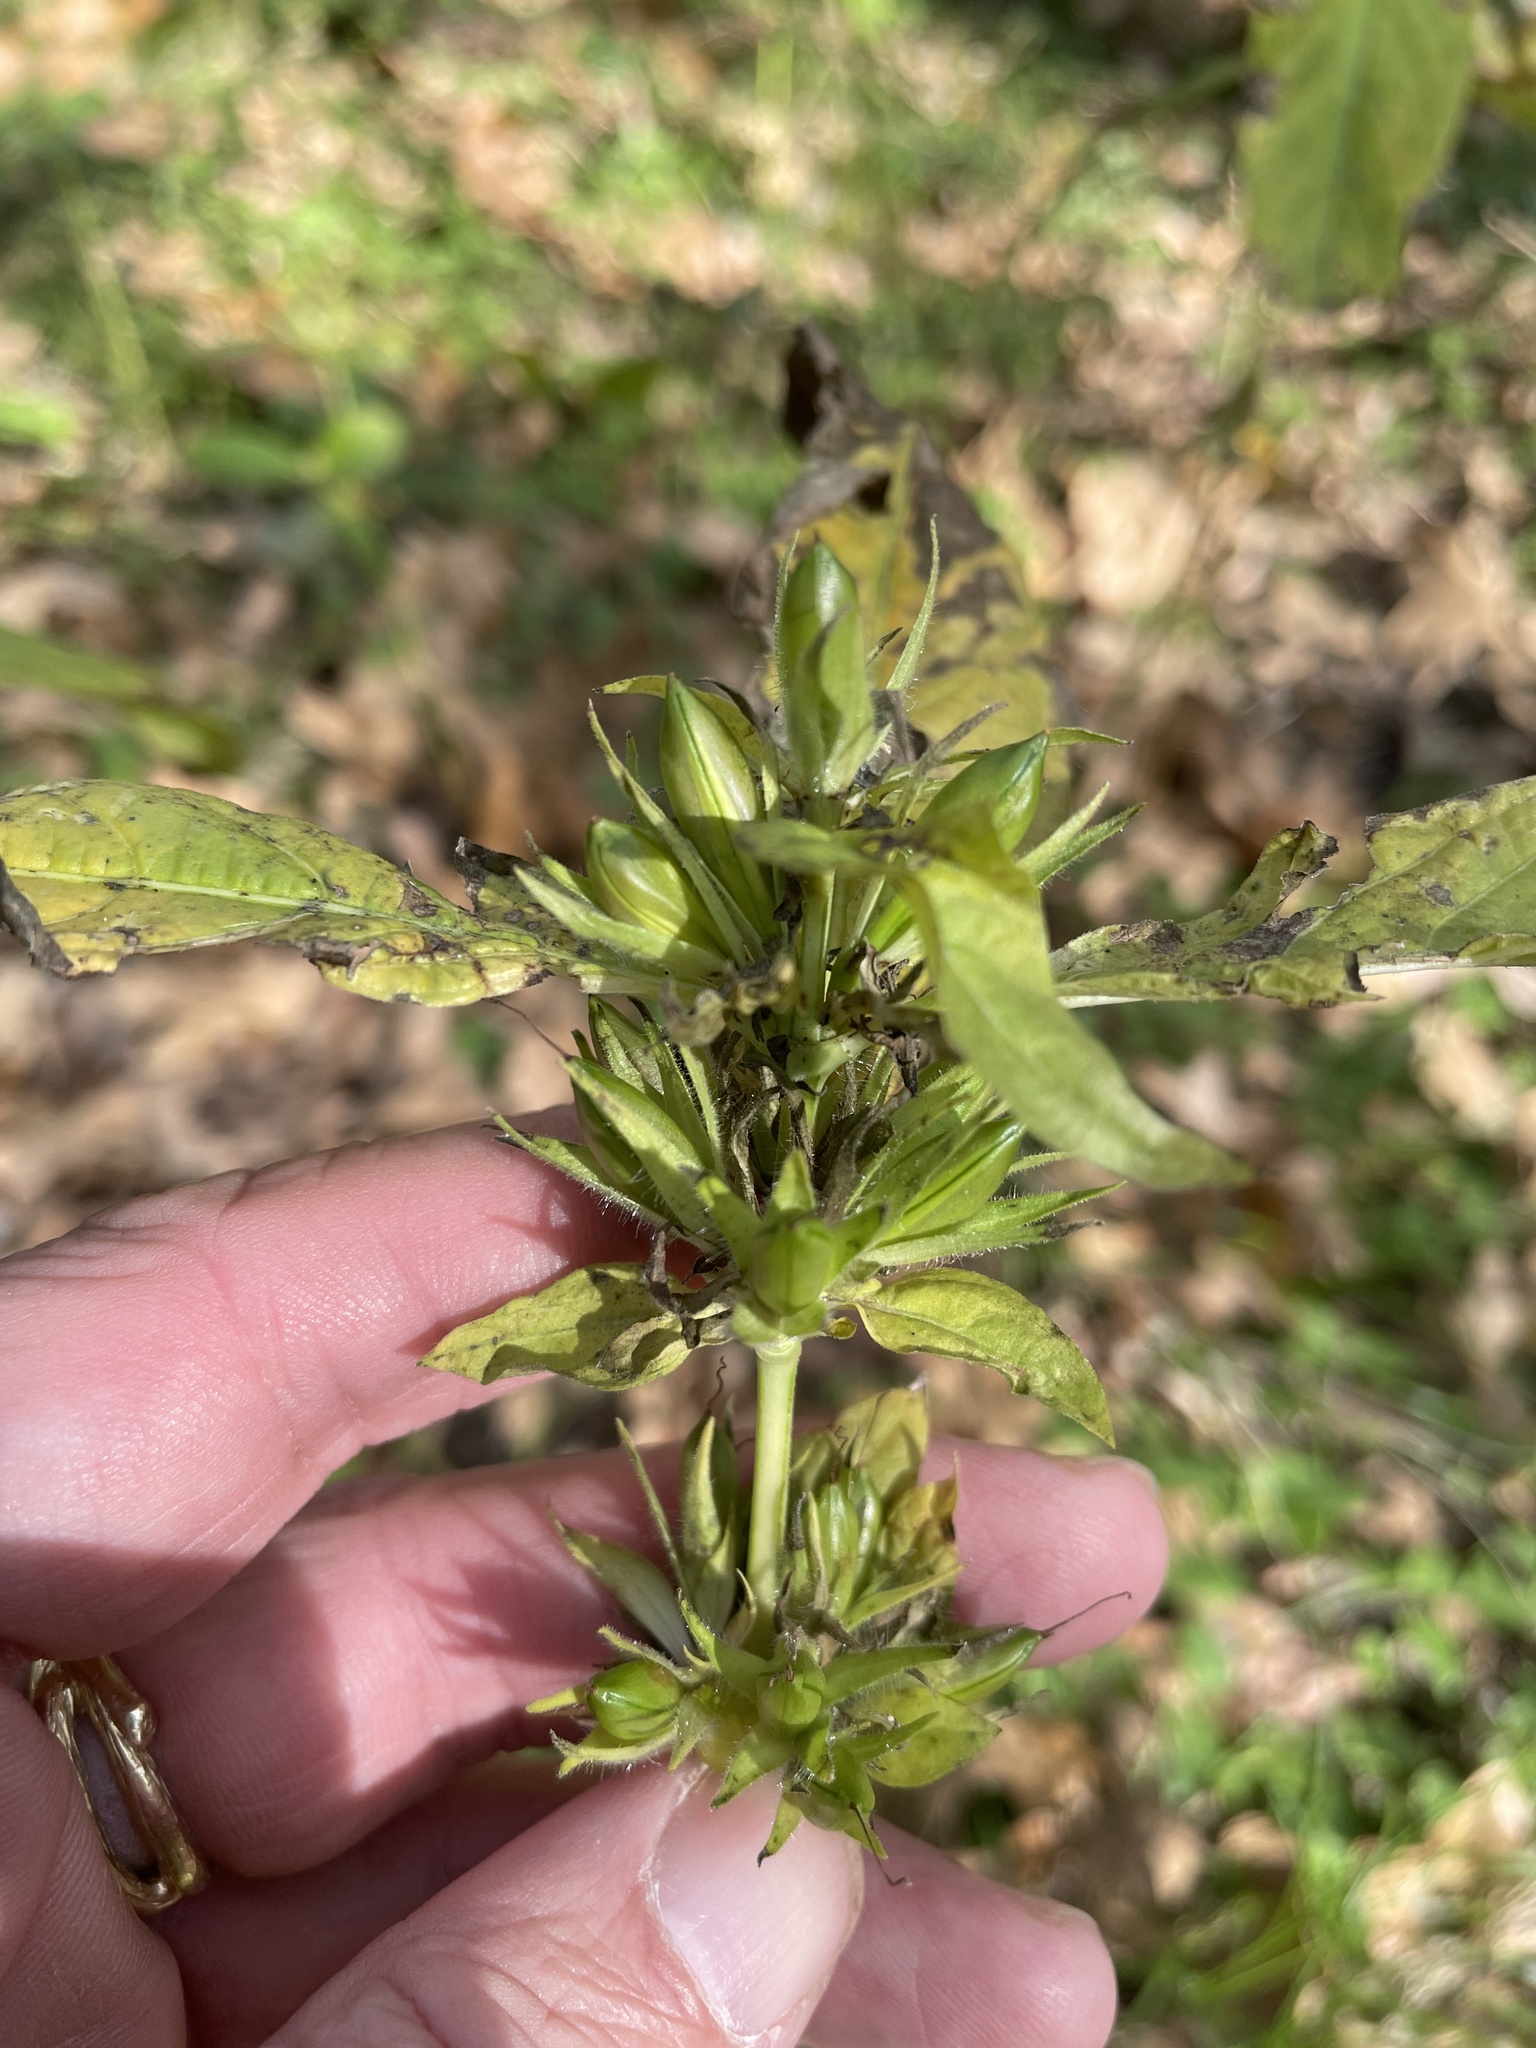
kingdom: Plantae
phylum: Tracheophyta
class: Magnoliopsida
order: Lamiales
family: Acanthaceae
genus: Ruellia
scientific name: Ruellia strepens
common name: Limestone wild petunia
